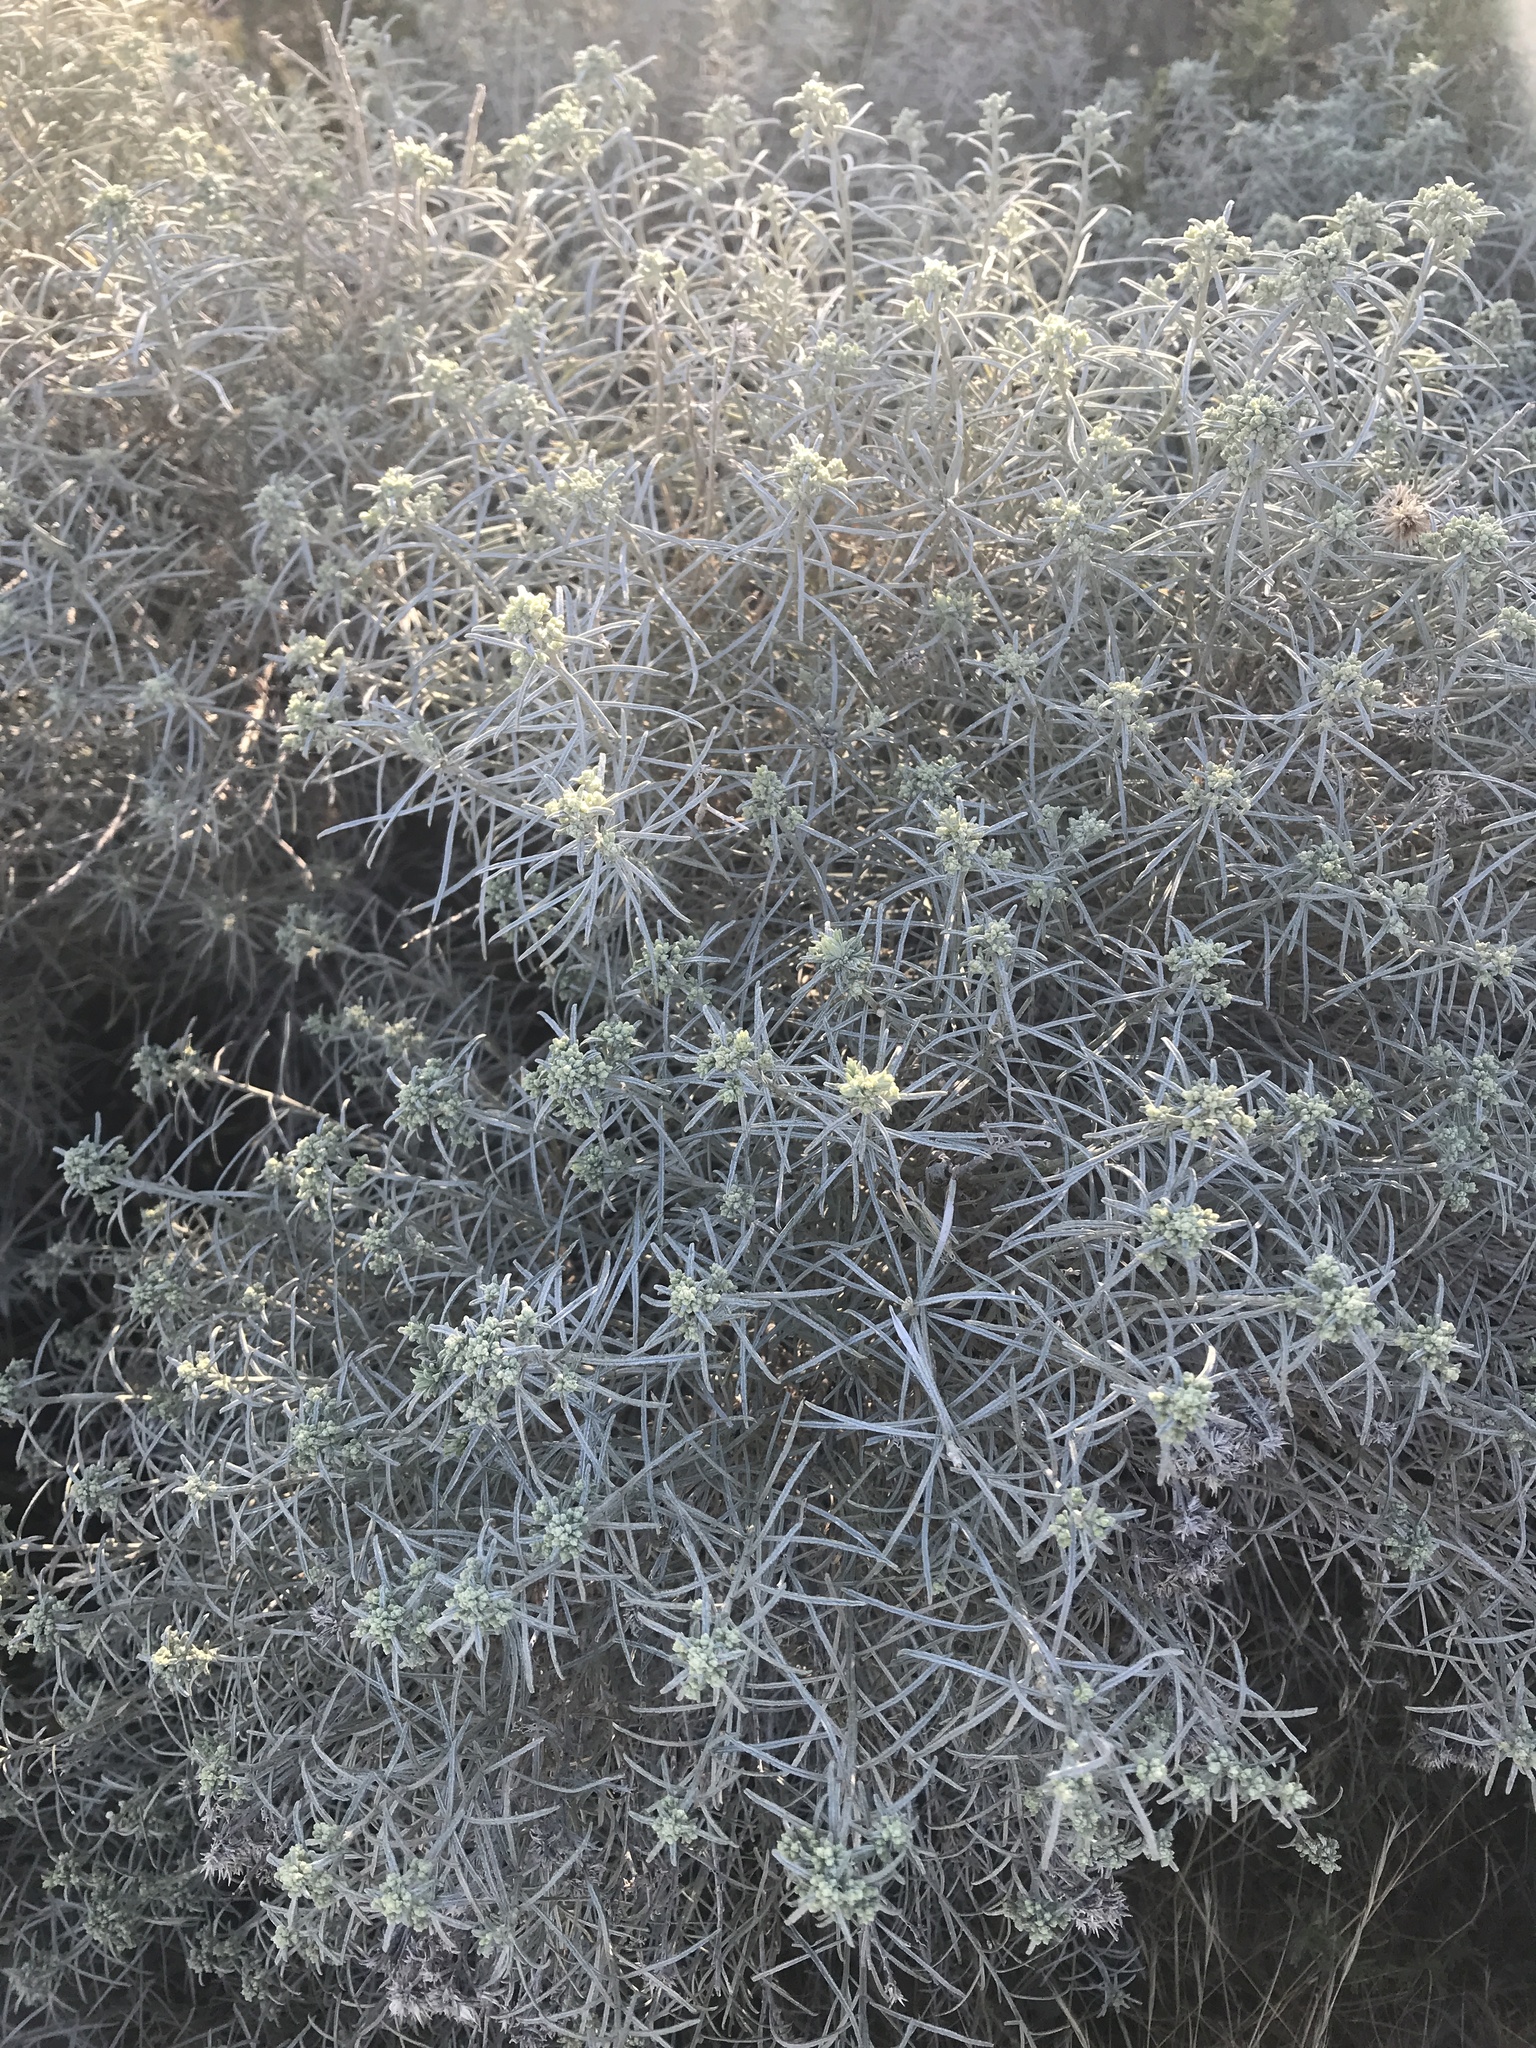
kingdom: Plantae
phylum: Tracheophyta
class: Magnoliopsida
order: Asterales
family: Asteraceae
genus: Ericameria
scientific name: Ericameria nauseosa
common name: Rubber rabbitbrush
